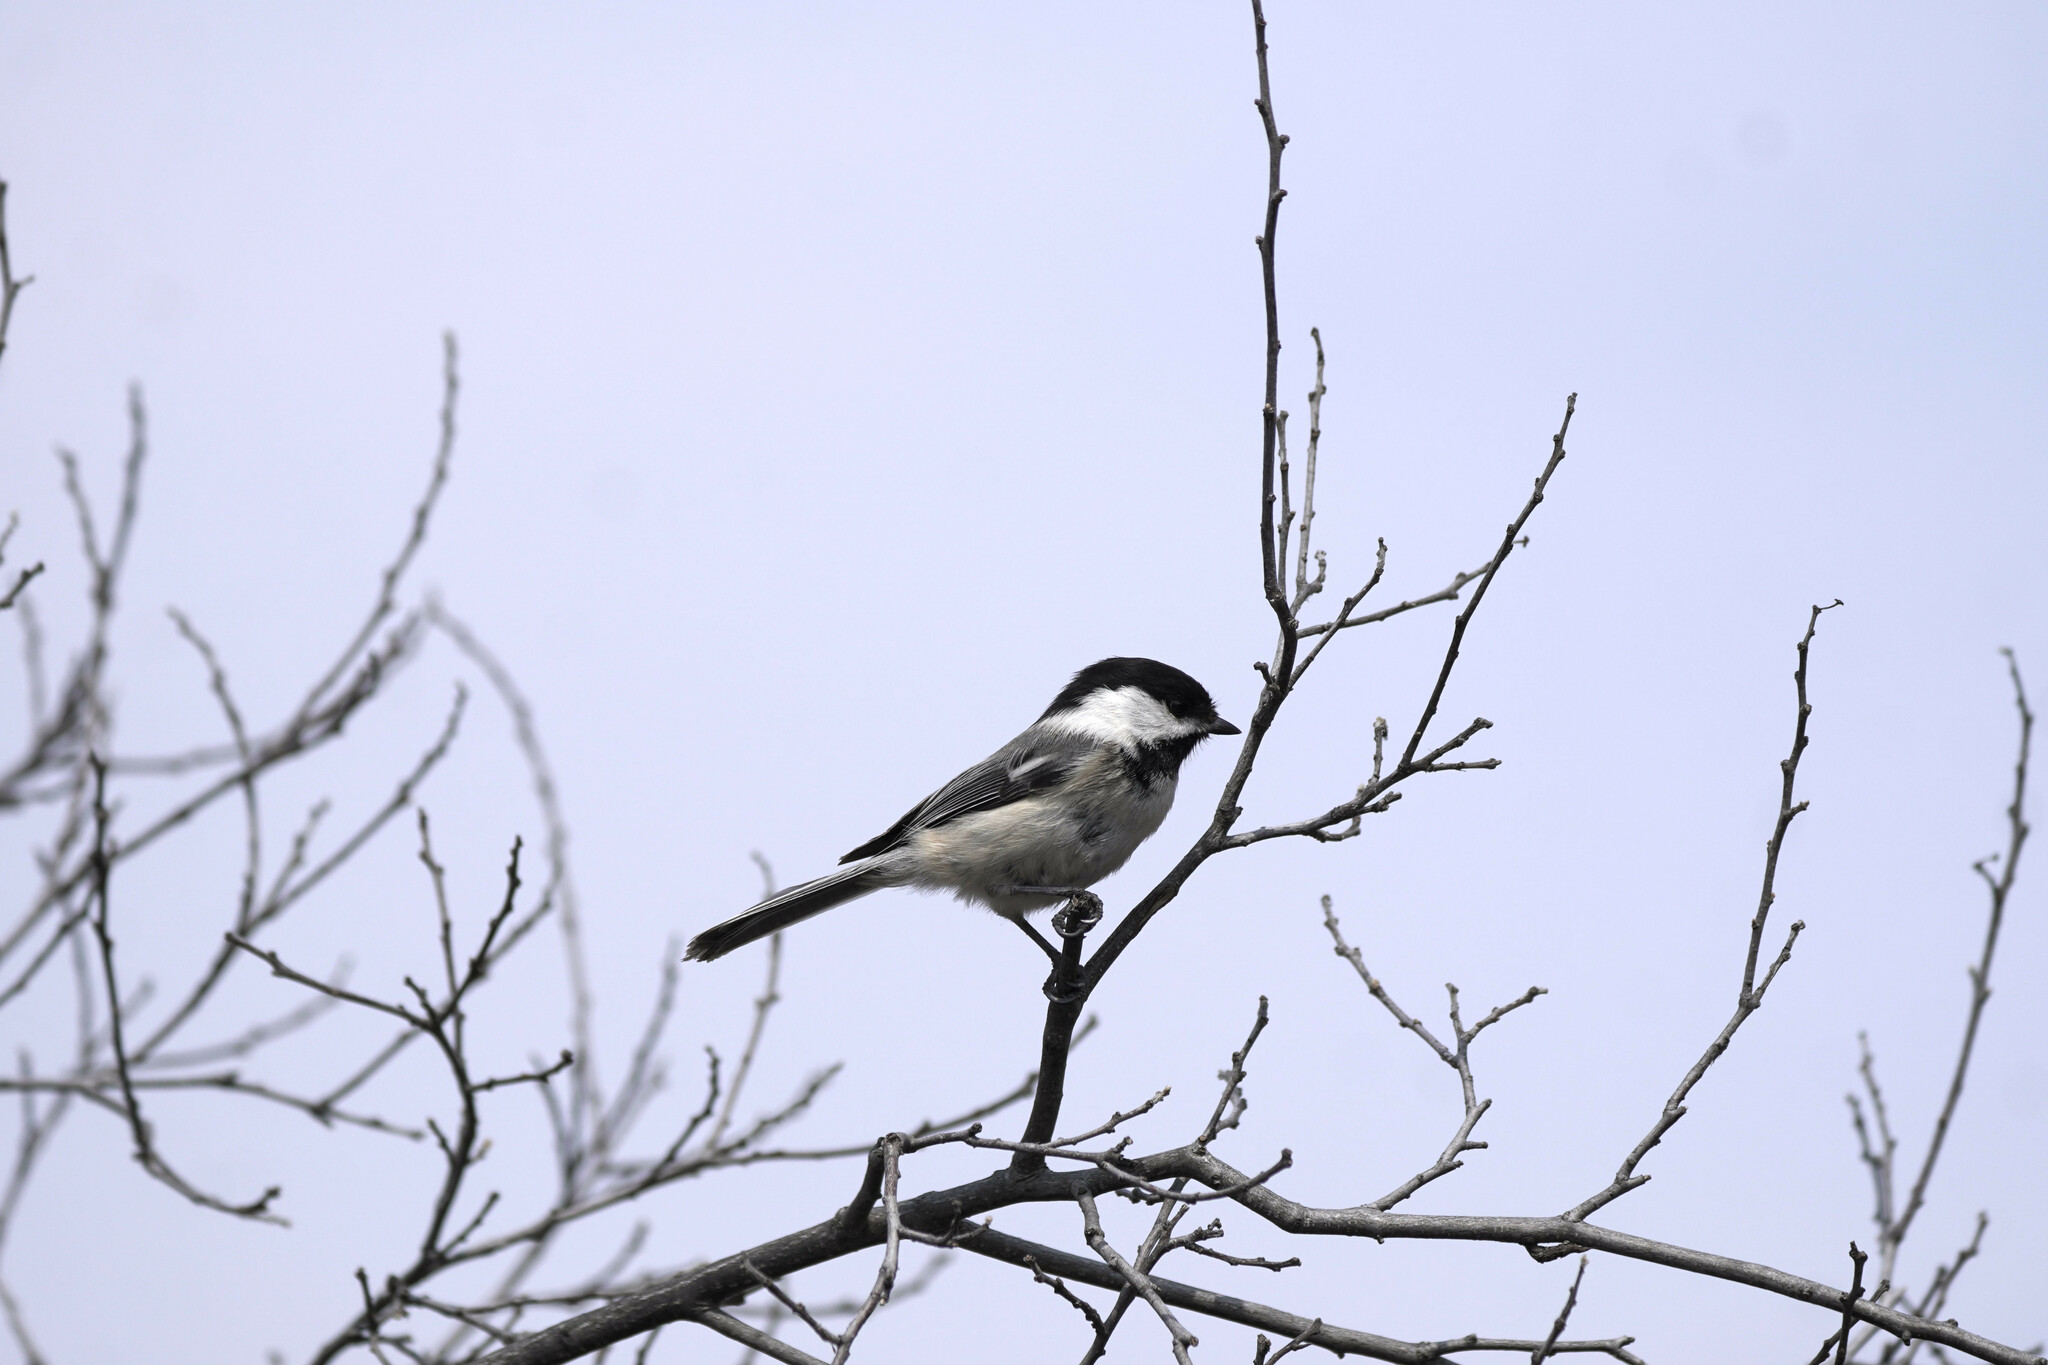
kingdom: Animalia
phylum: Chordata
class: Aves
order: Passeriformes
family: Paridae
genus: Poecile
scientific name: Poecile atricapillus
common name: Black-capped chickadee
